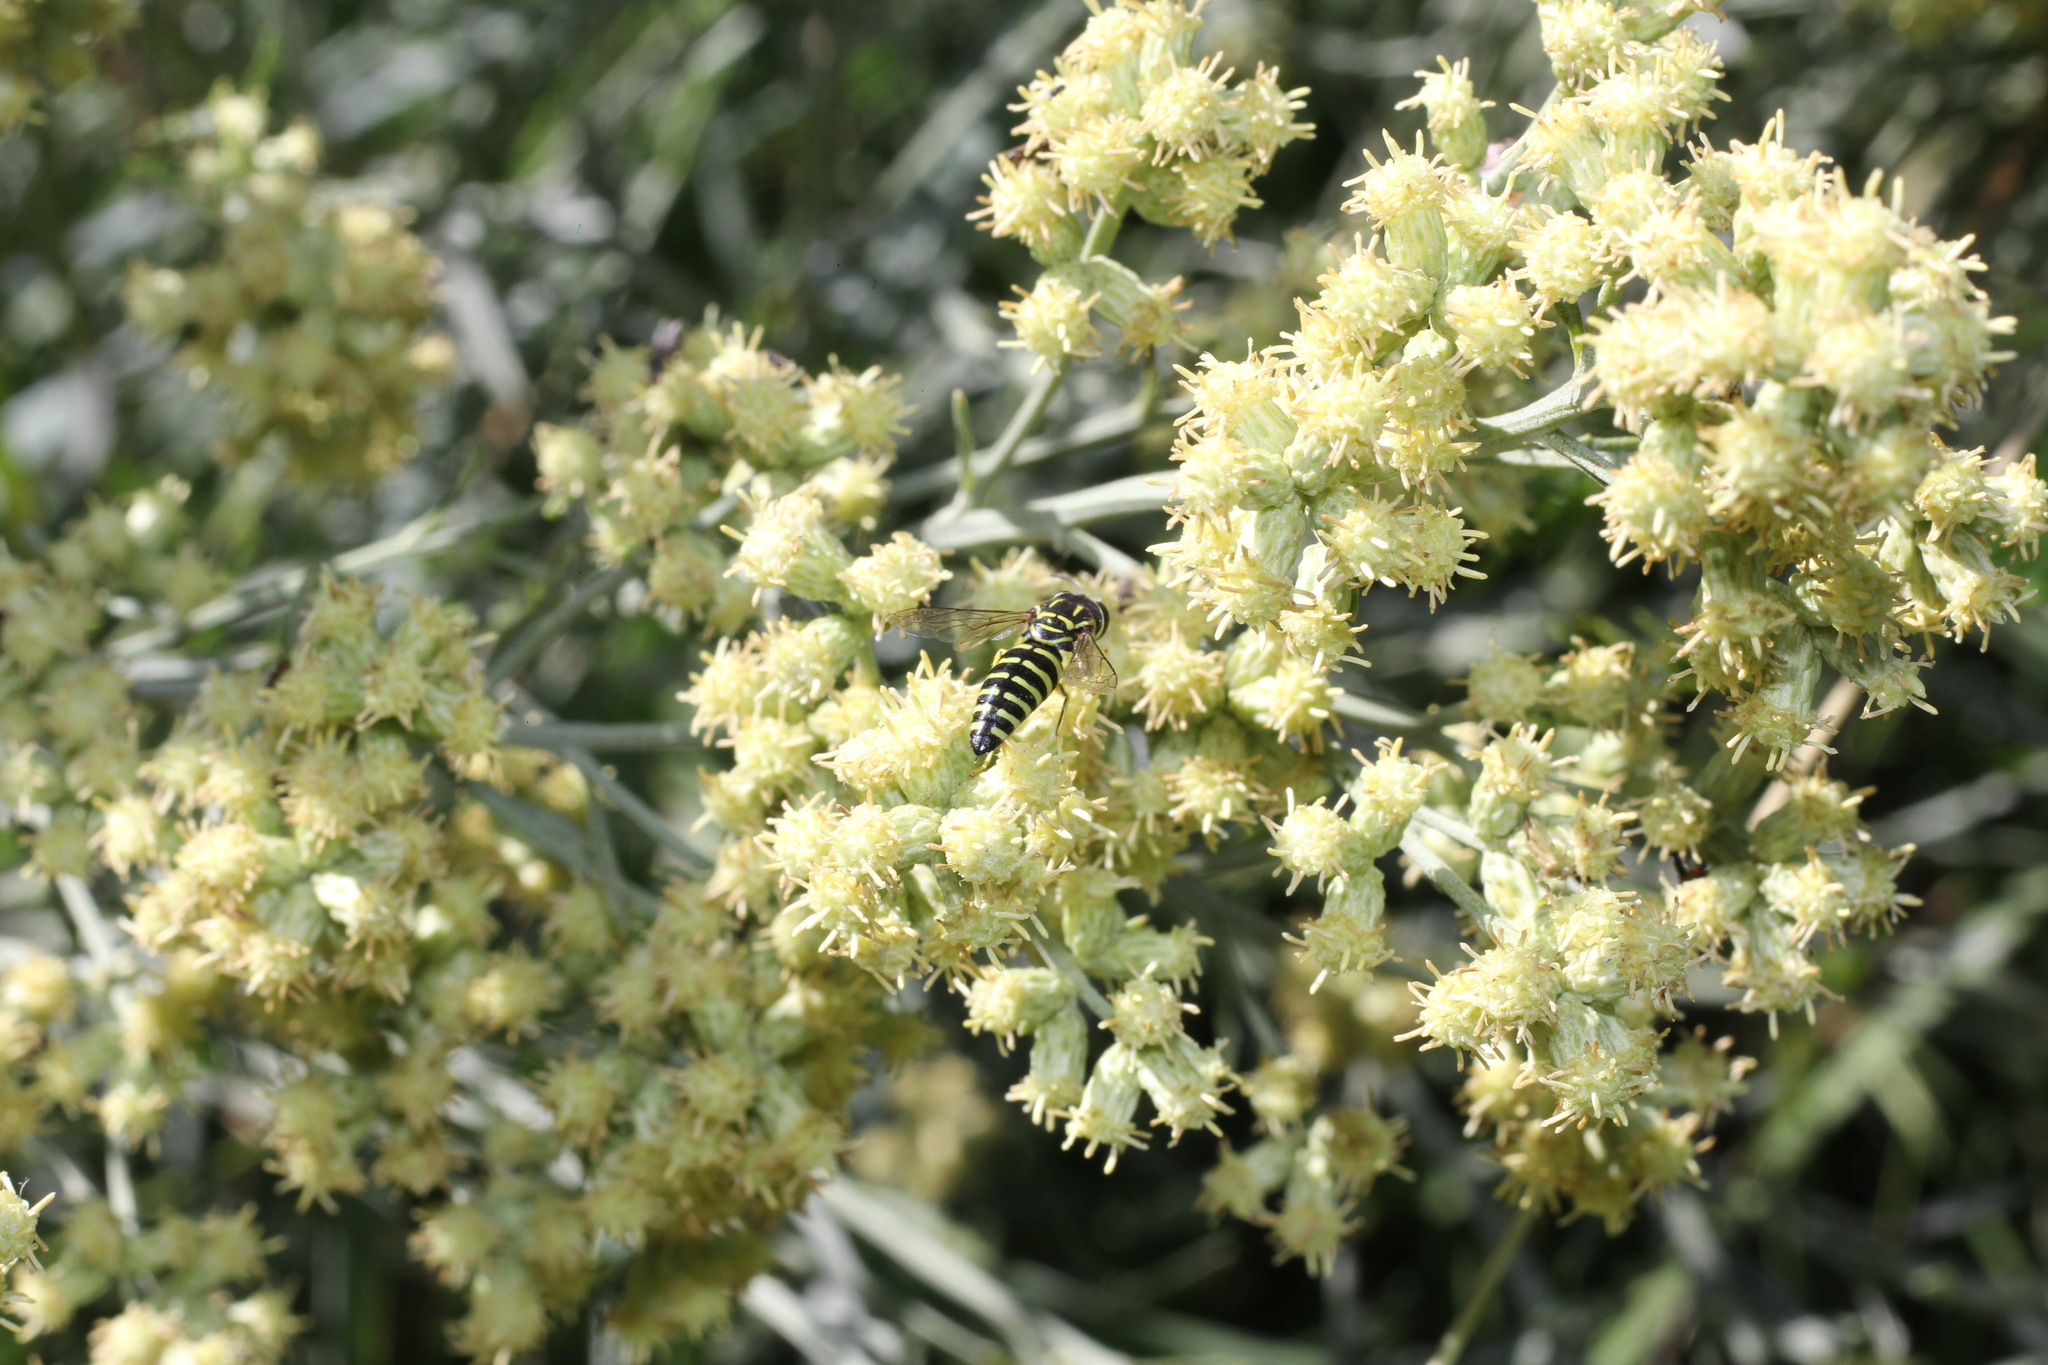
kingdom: Animalia
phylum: Arthropoda
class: Insecta
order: Hymenoptera
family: Crabronidae
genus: Bicyrtes
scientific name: Bicyrtes variegatus
